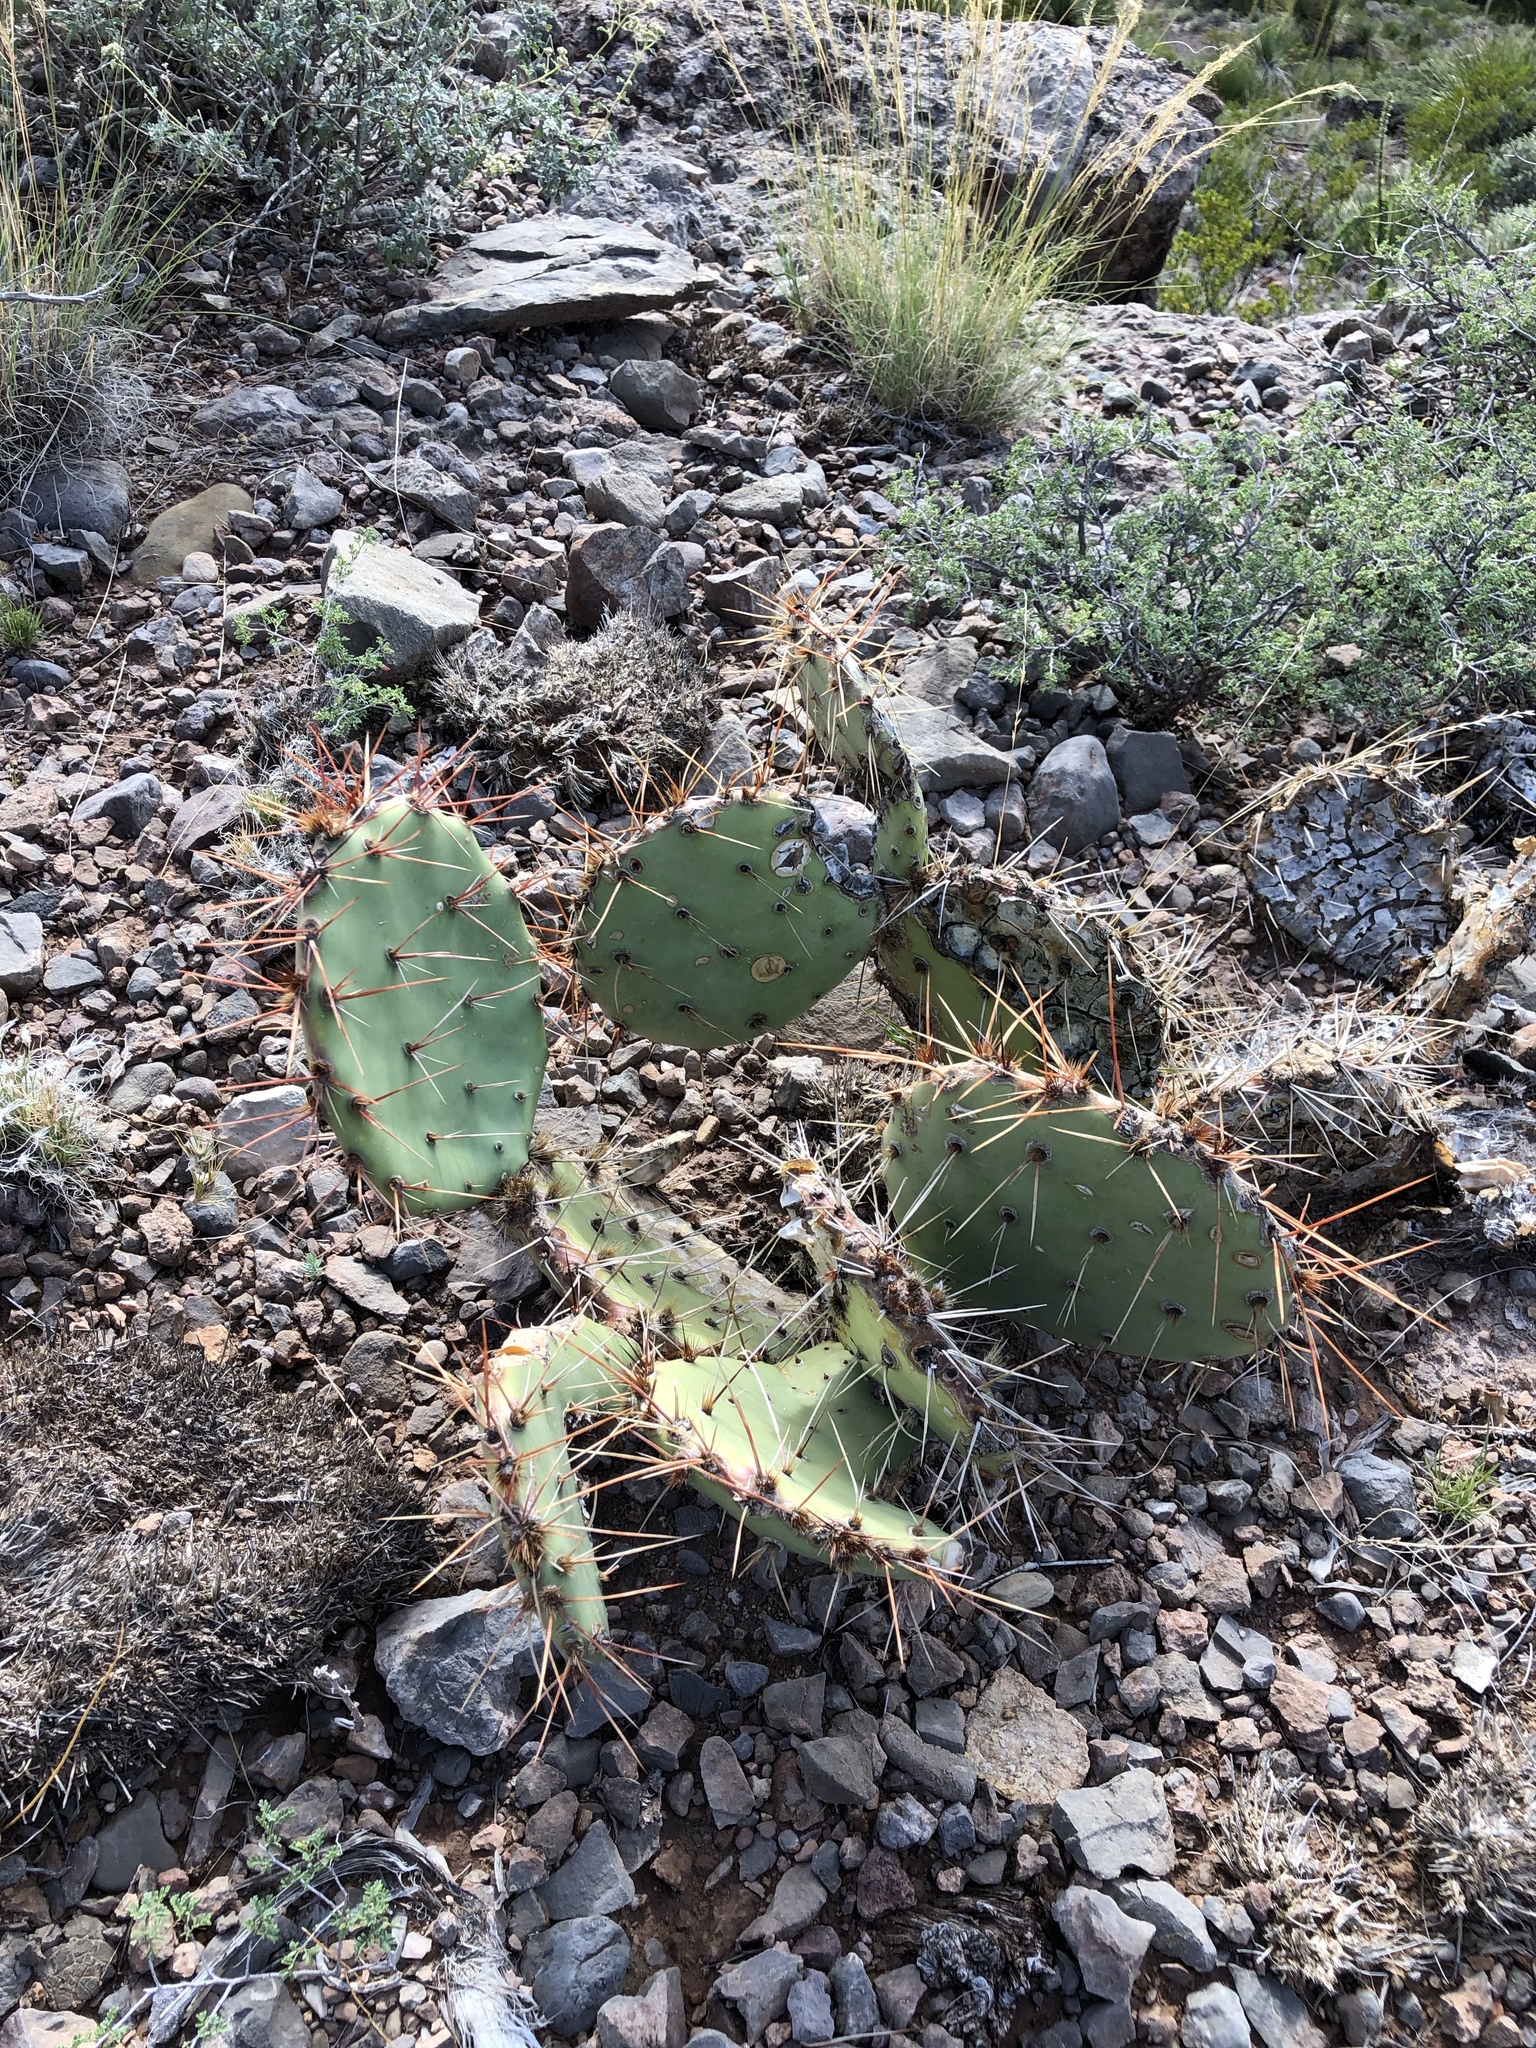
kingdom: Plantae
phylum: Tracheophyta
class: Magnoliopsida
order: Caryophyllales
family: Cactaceae
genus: Opuntia
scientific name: Opuntia engelmannii
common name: Cactus-apple
